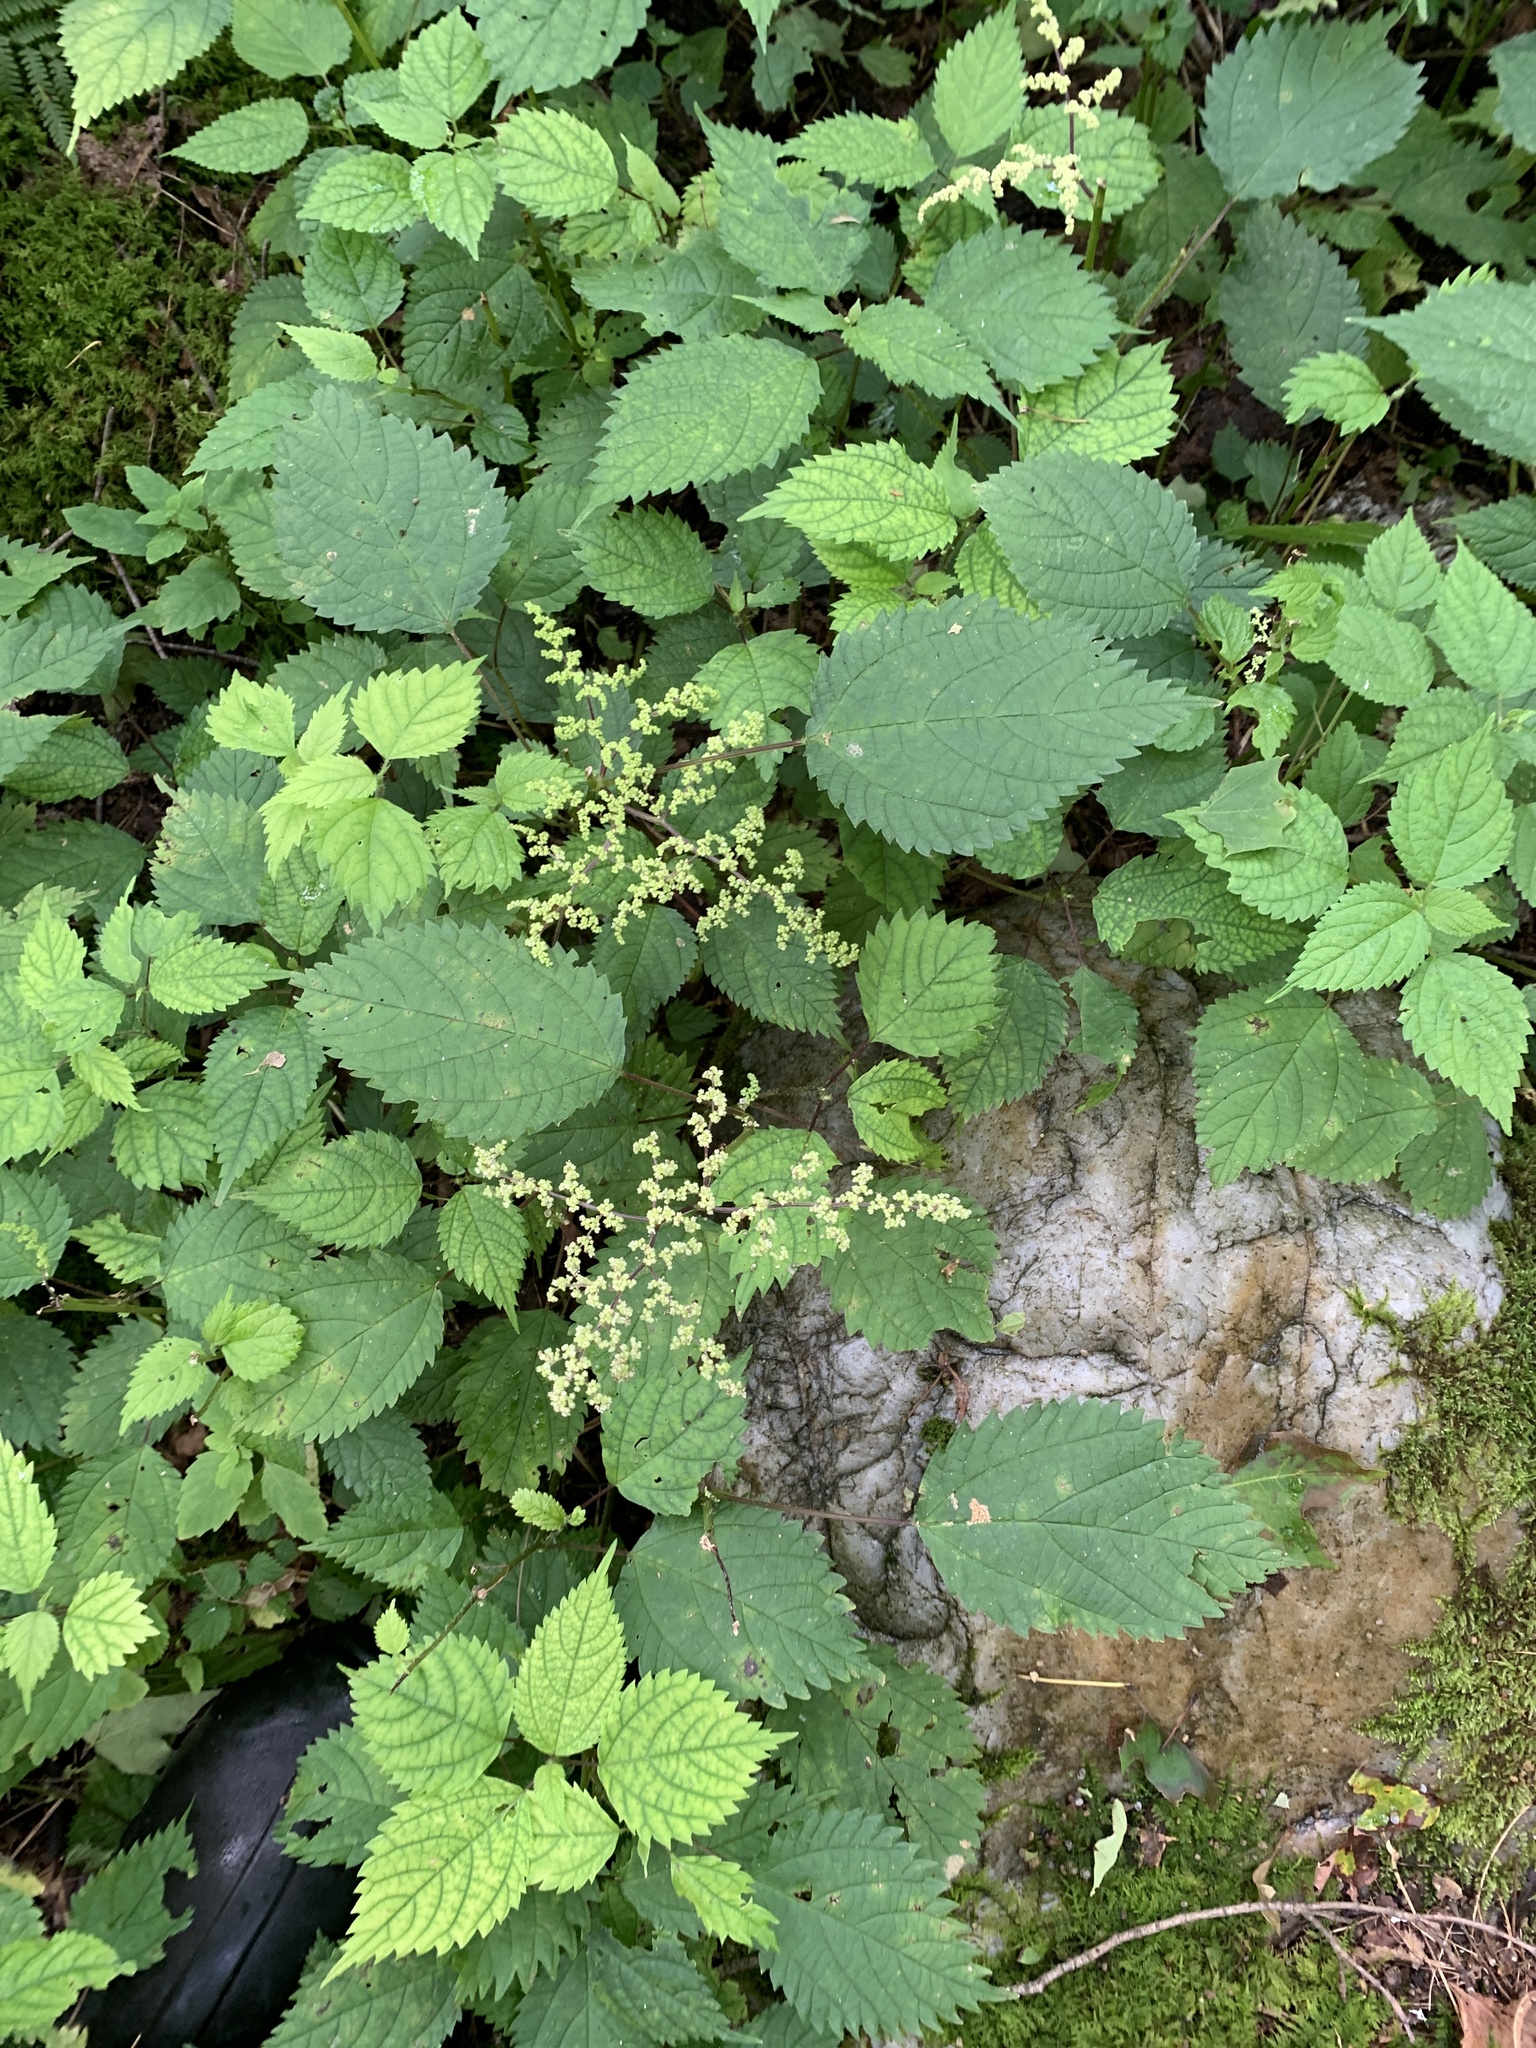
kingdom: Plantae
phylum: Tracheophyta
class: Magnoliopsida
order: Rosales
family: Urticaceae
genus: Laportea
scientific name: Laportea canadensis
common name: Canada nettle
